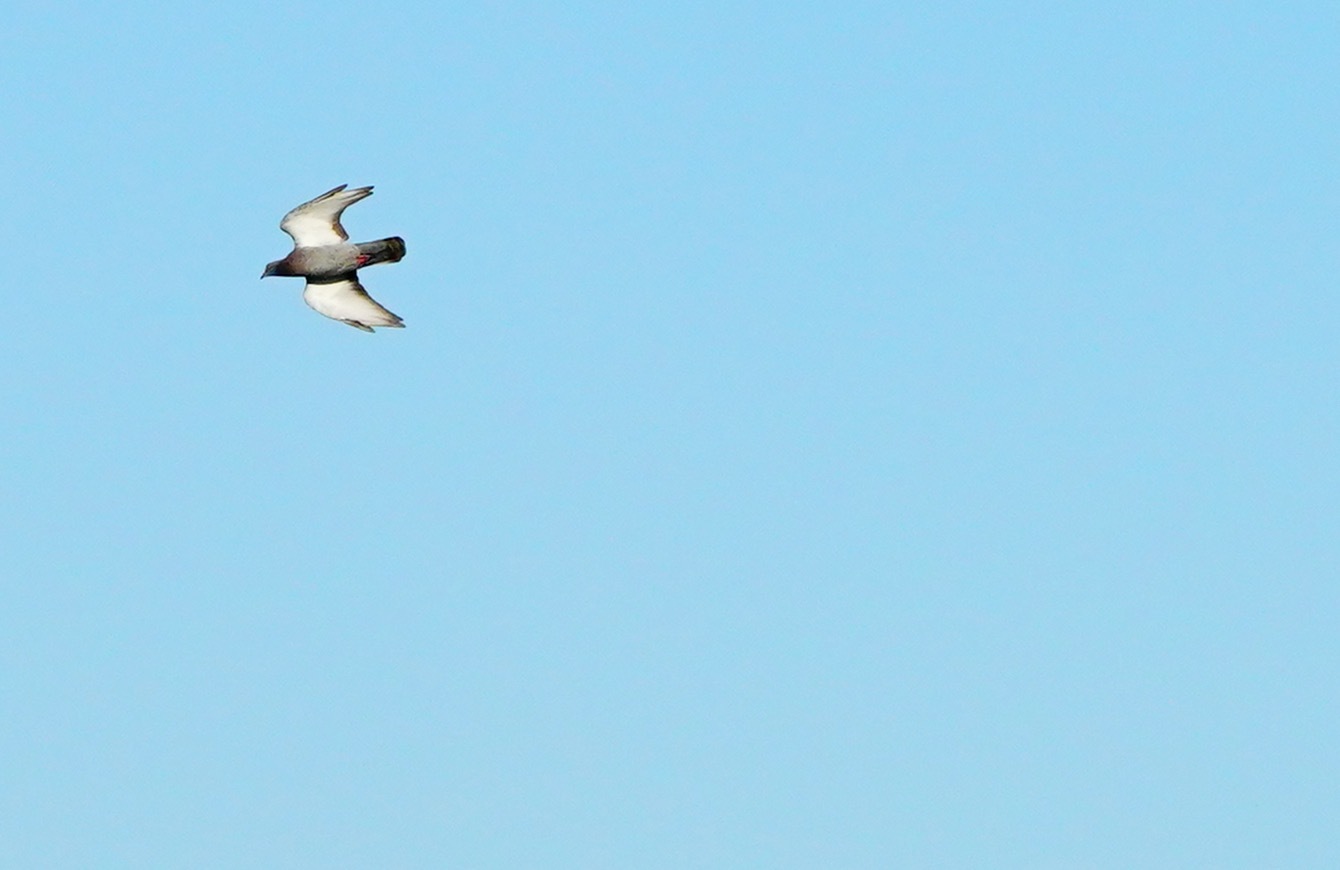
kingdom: Animalia
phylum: Chordata
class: Aves
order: Columbiformes
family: Columbidae
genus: Columba
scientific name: Columba livia
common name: Rock pigeon
